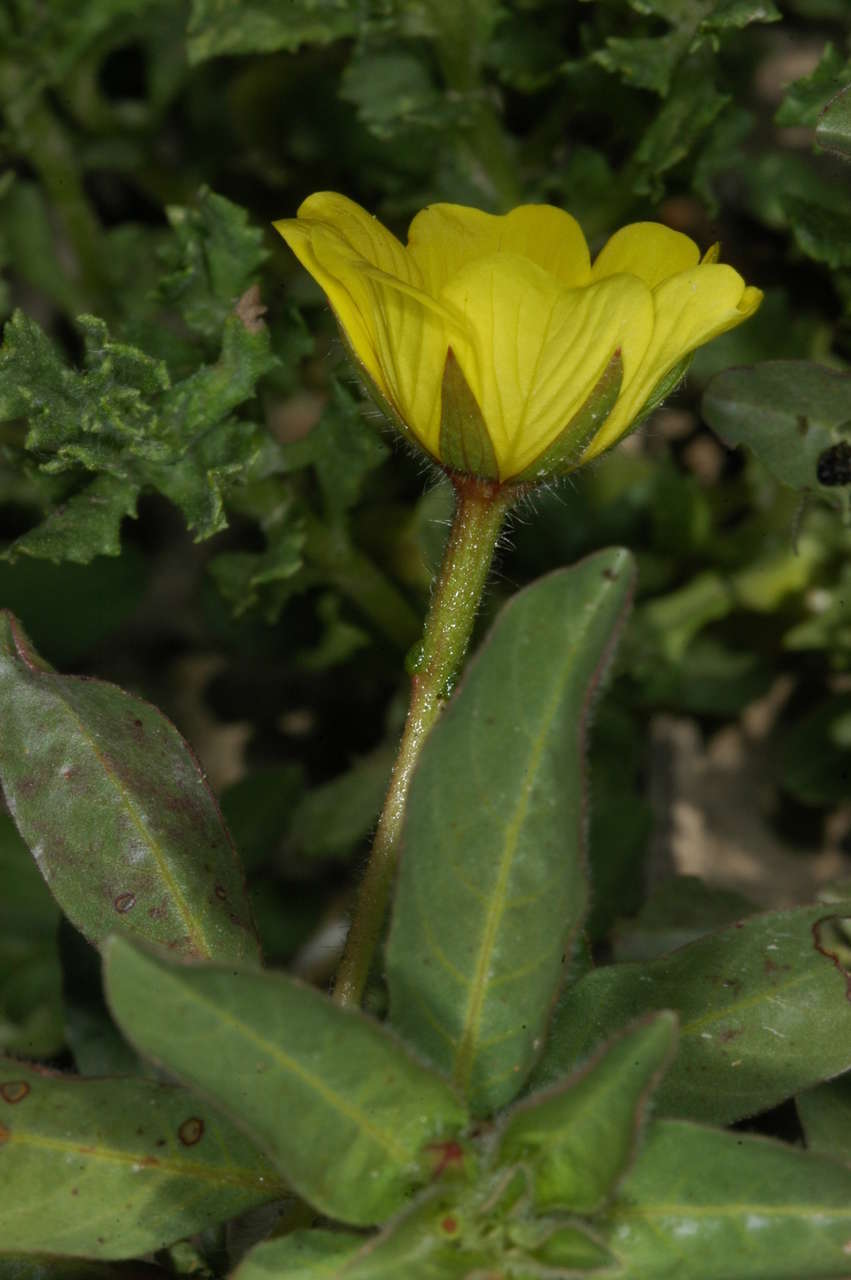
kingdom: Plantae
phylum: Tracheophyta
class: Magnoliopsida
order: Myrtales
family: Onagraceae
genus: Ludwigia
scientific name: Ludwigia peploides
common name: Floating primrose-willow
